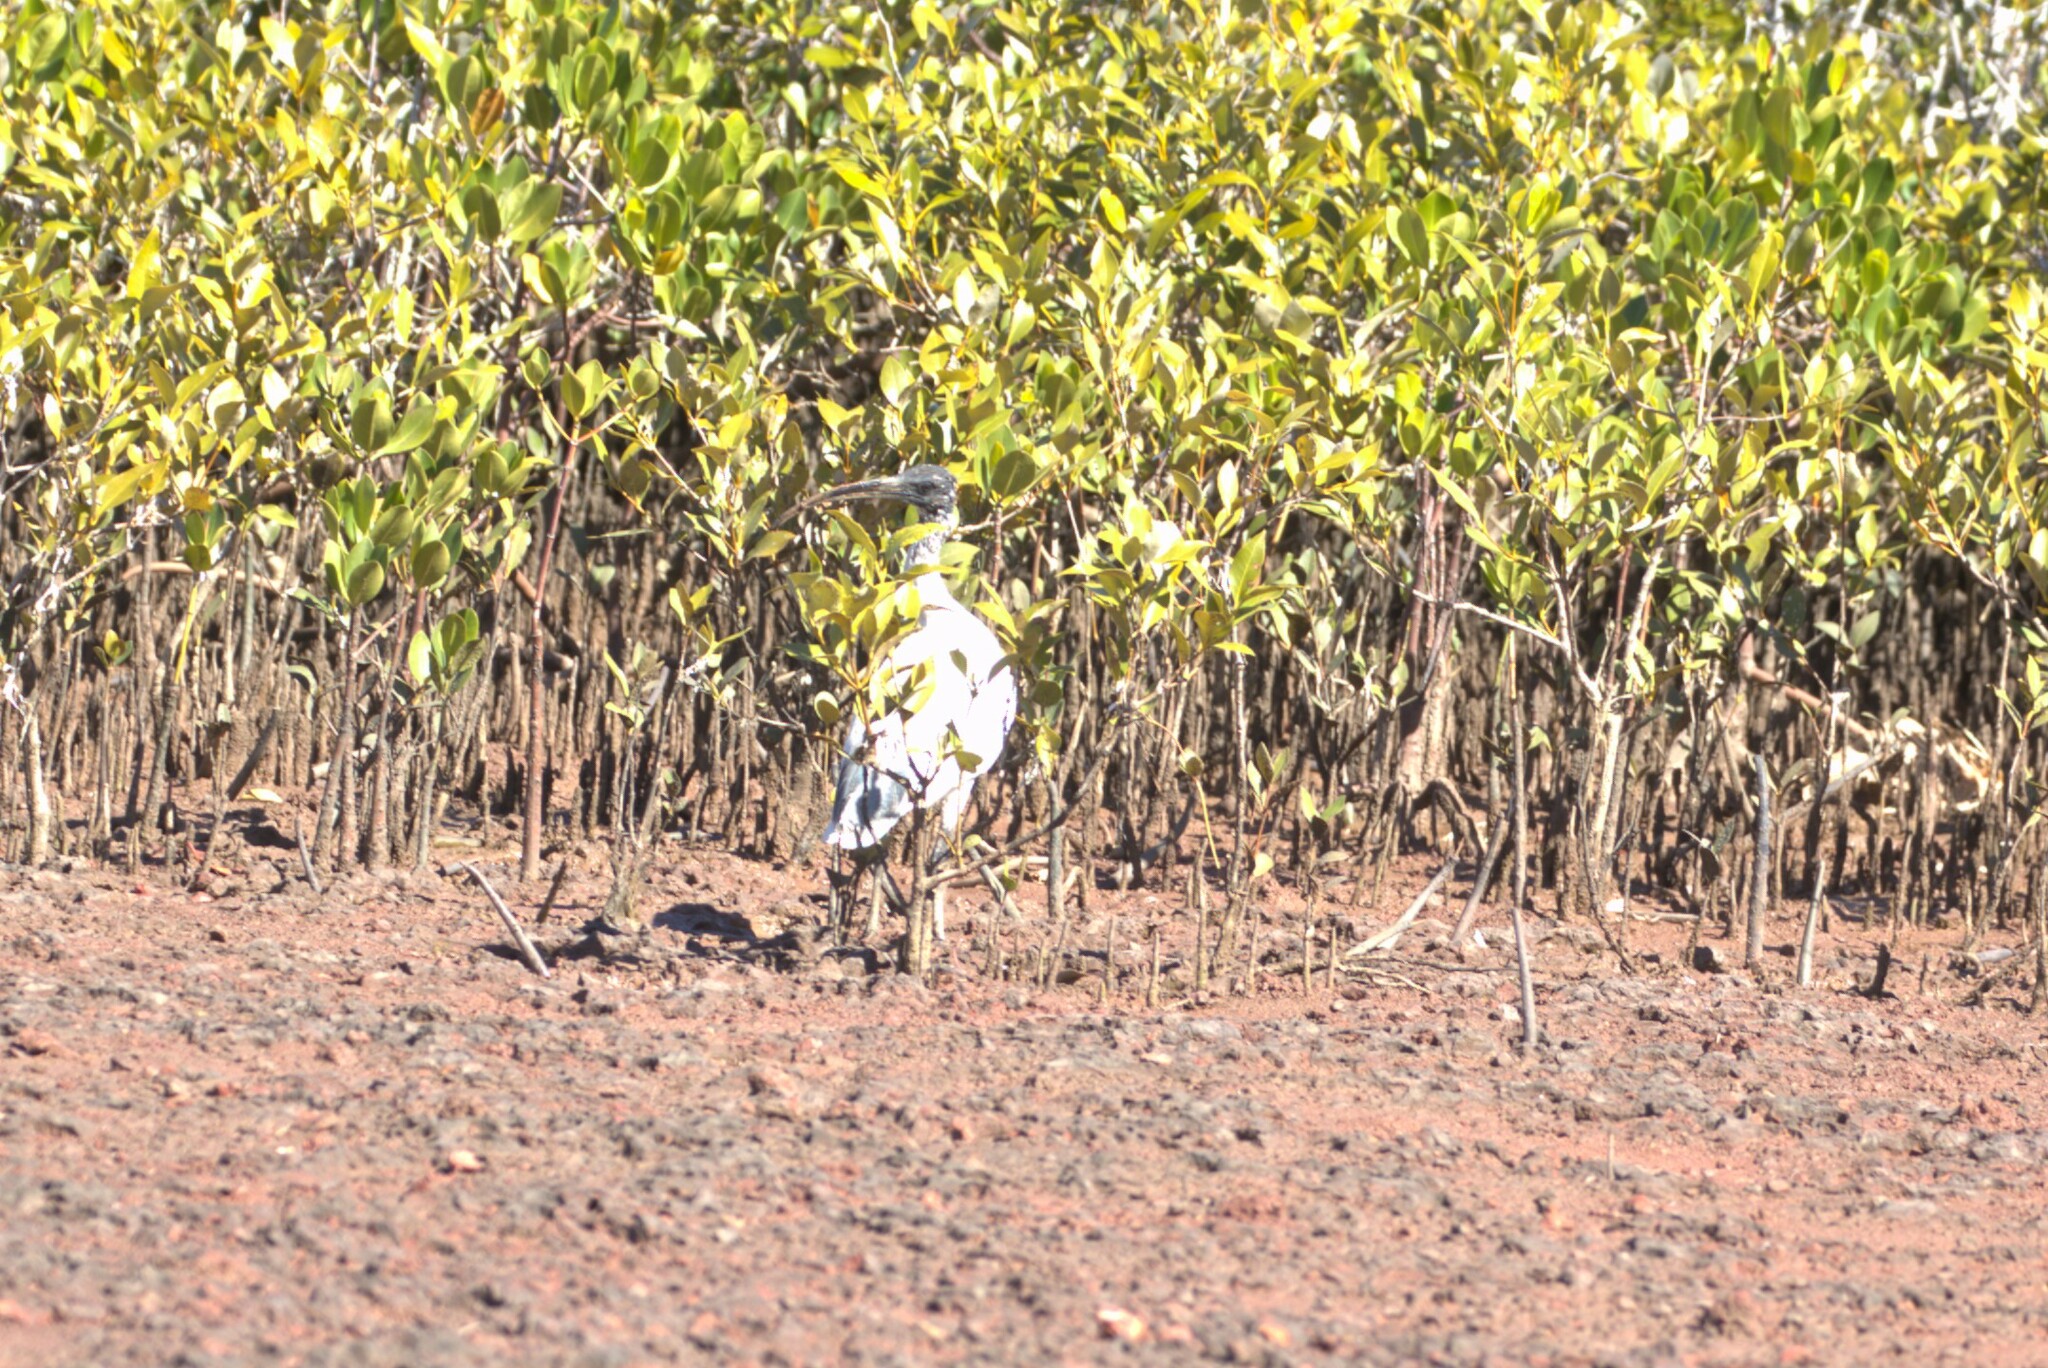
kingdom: Animalia
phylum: Chordata
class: Aves
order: Pelecaniformes
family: Threskiornithidae
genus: Threskiornis
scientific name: Threskiornis molucca
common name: Australian white ibis
